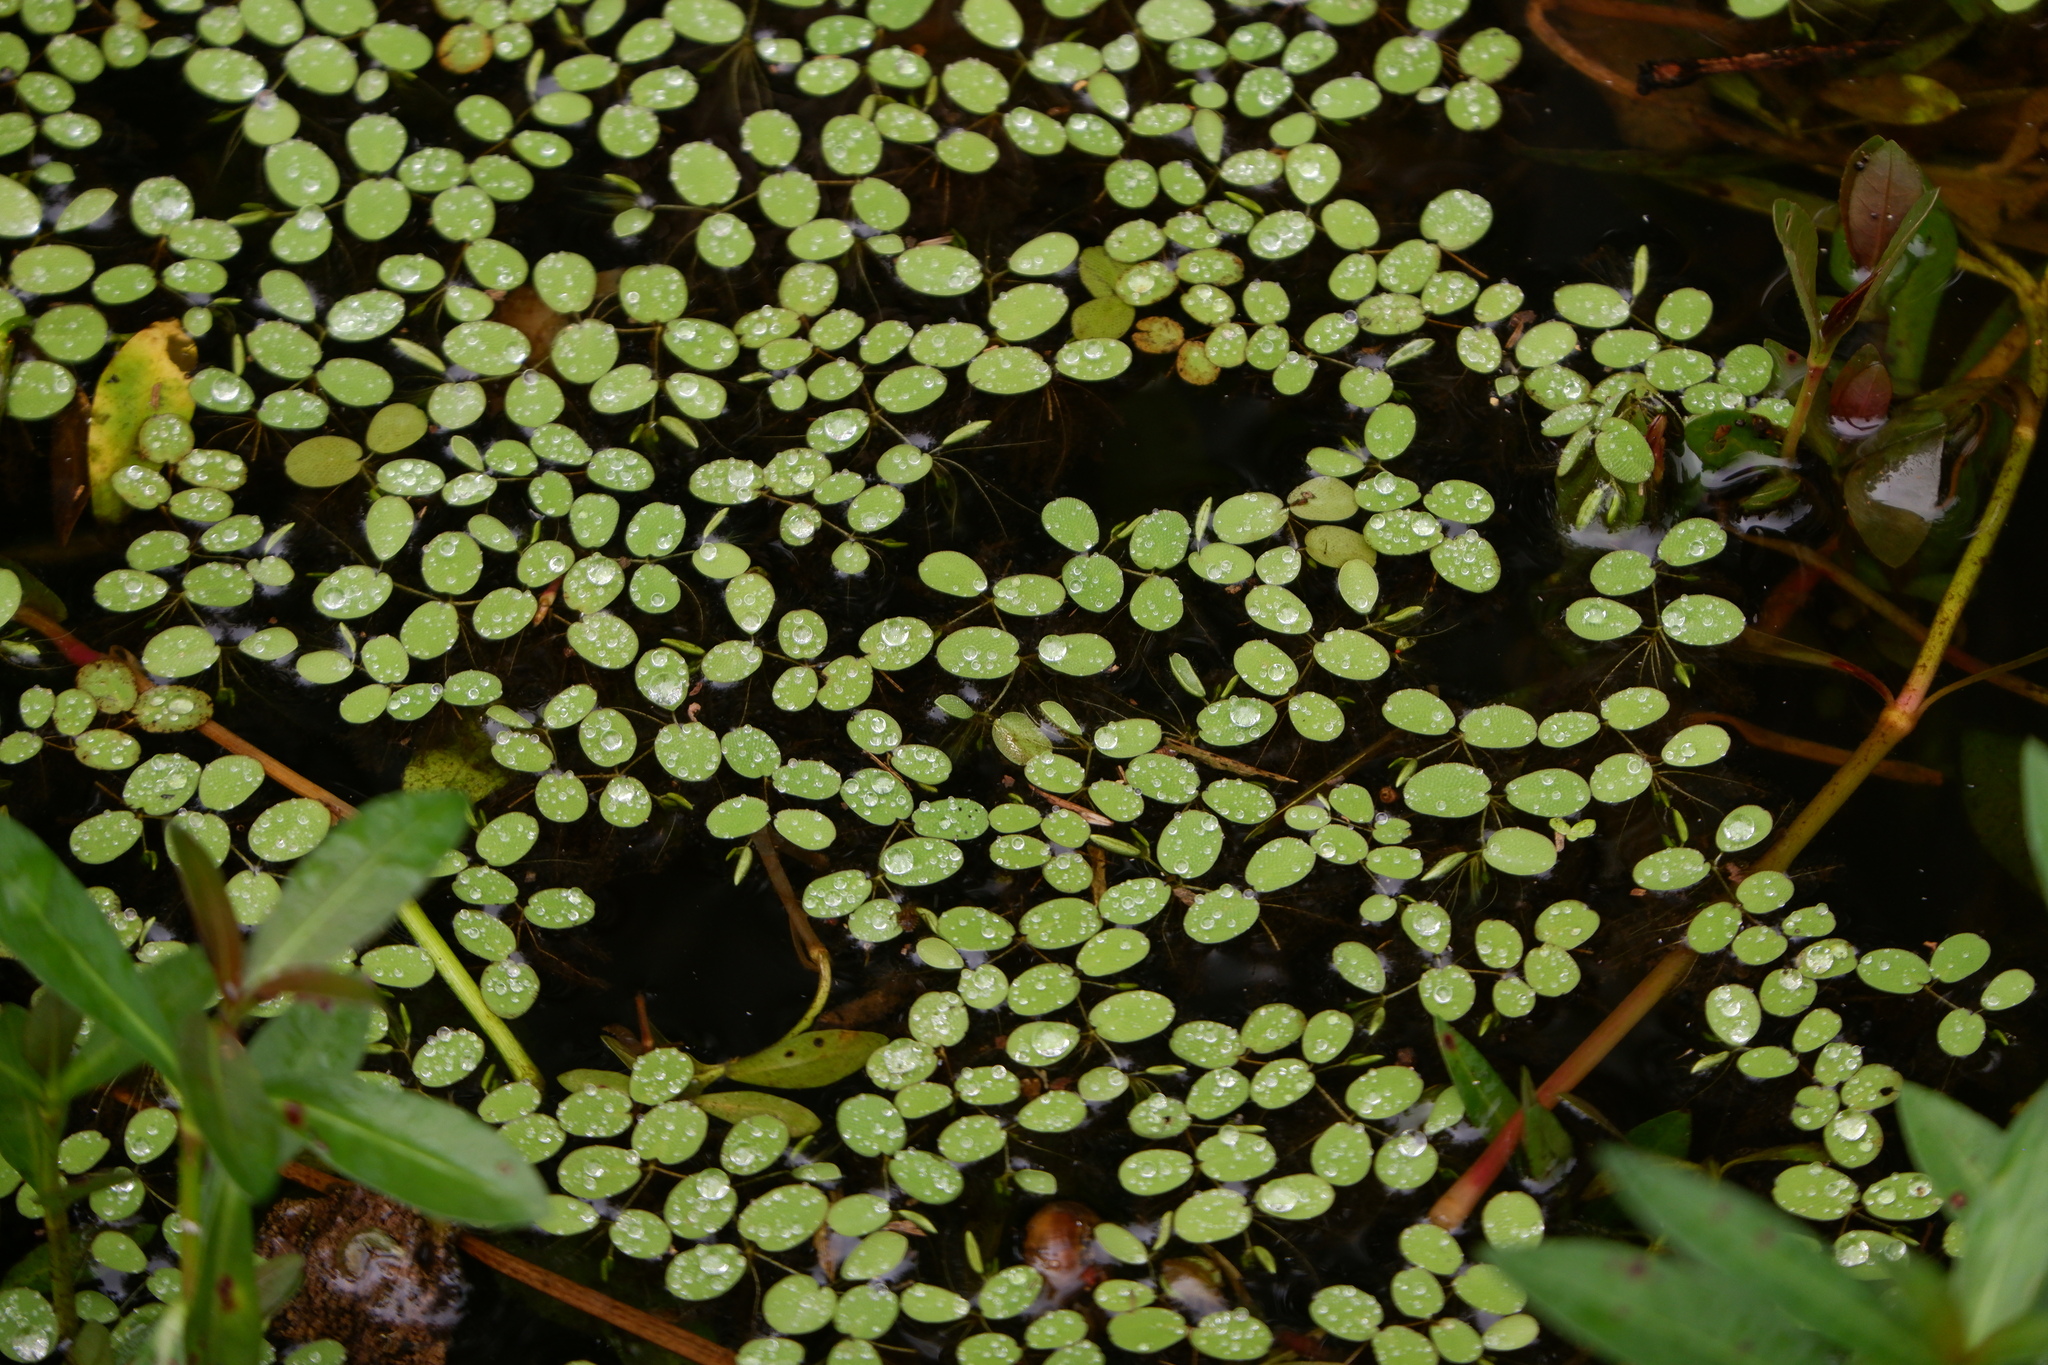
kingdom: Plantae
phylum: Tracheophyta
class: Polypodiopsida
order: Salviniales
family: Salviniaceae
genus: Salvinia
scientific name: Salvinia molesta
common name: Kariba weed
